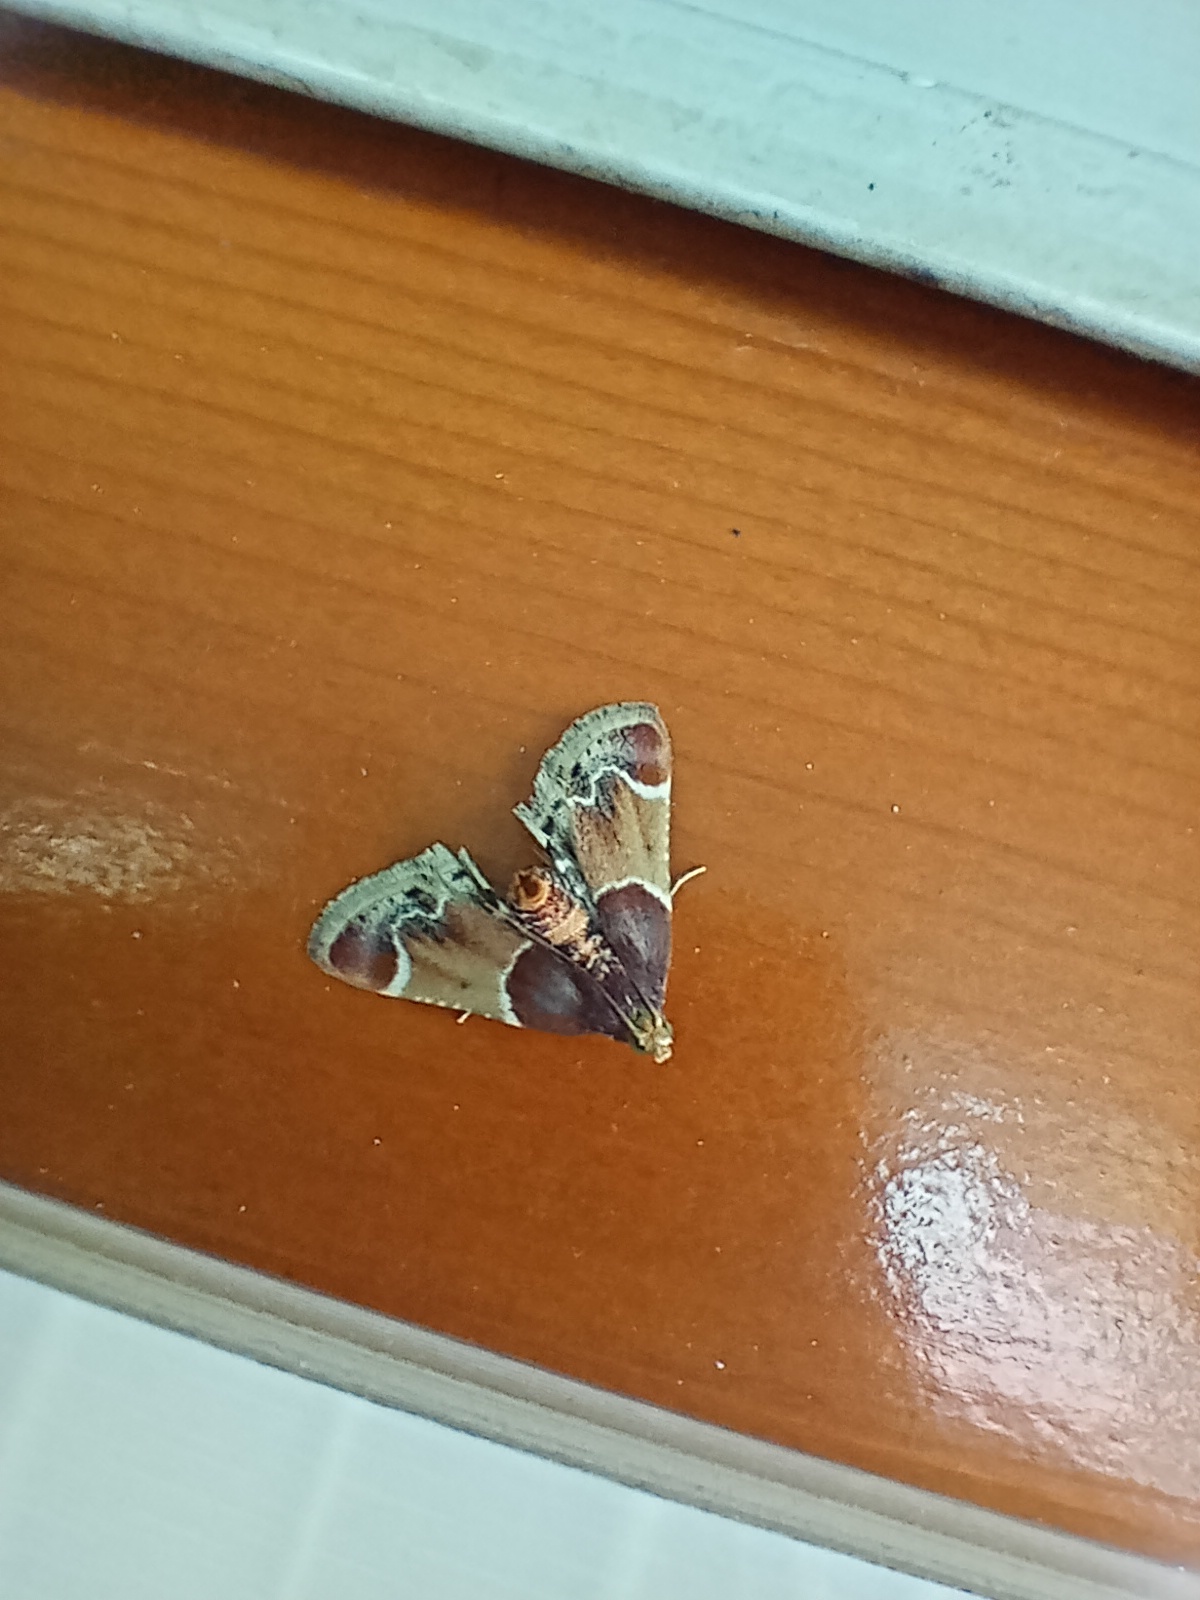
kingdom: Animalia
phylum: Arthropoda
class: Insecta
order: Lepidoptera
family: Pyralidae
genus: Pyralis
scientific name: Pyralis farinalis
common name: Meal moth
